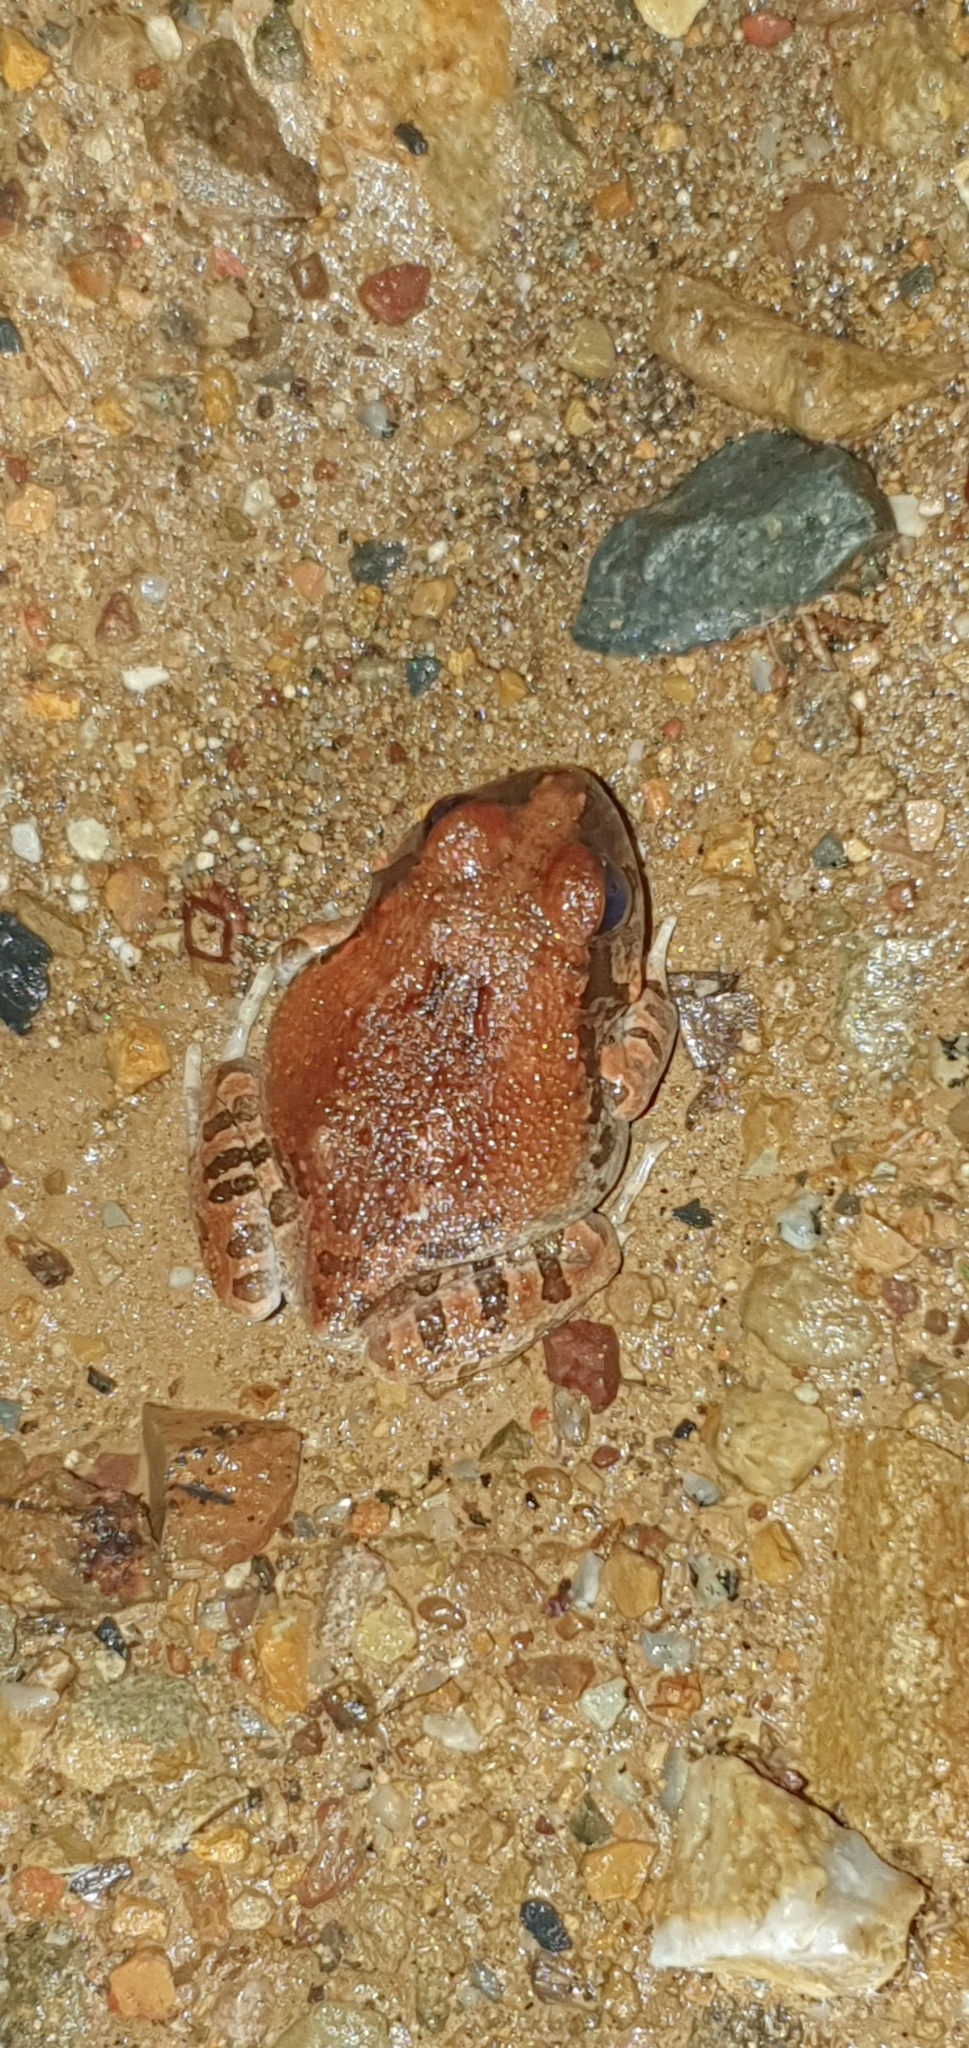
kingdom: Animalia
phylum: Chordata
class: Amphibia
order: Anura
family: Limnodynastidae
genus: Platyplectrum
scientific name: Platyplectrum ornatum
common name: Ornate burrowing frog
